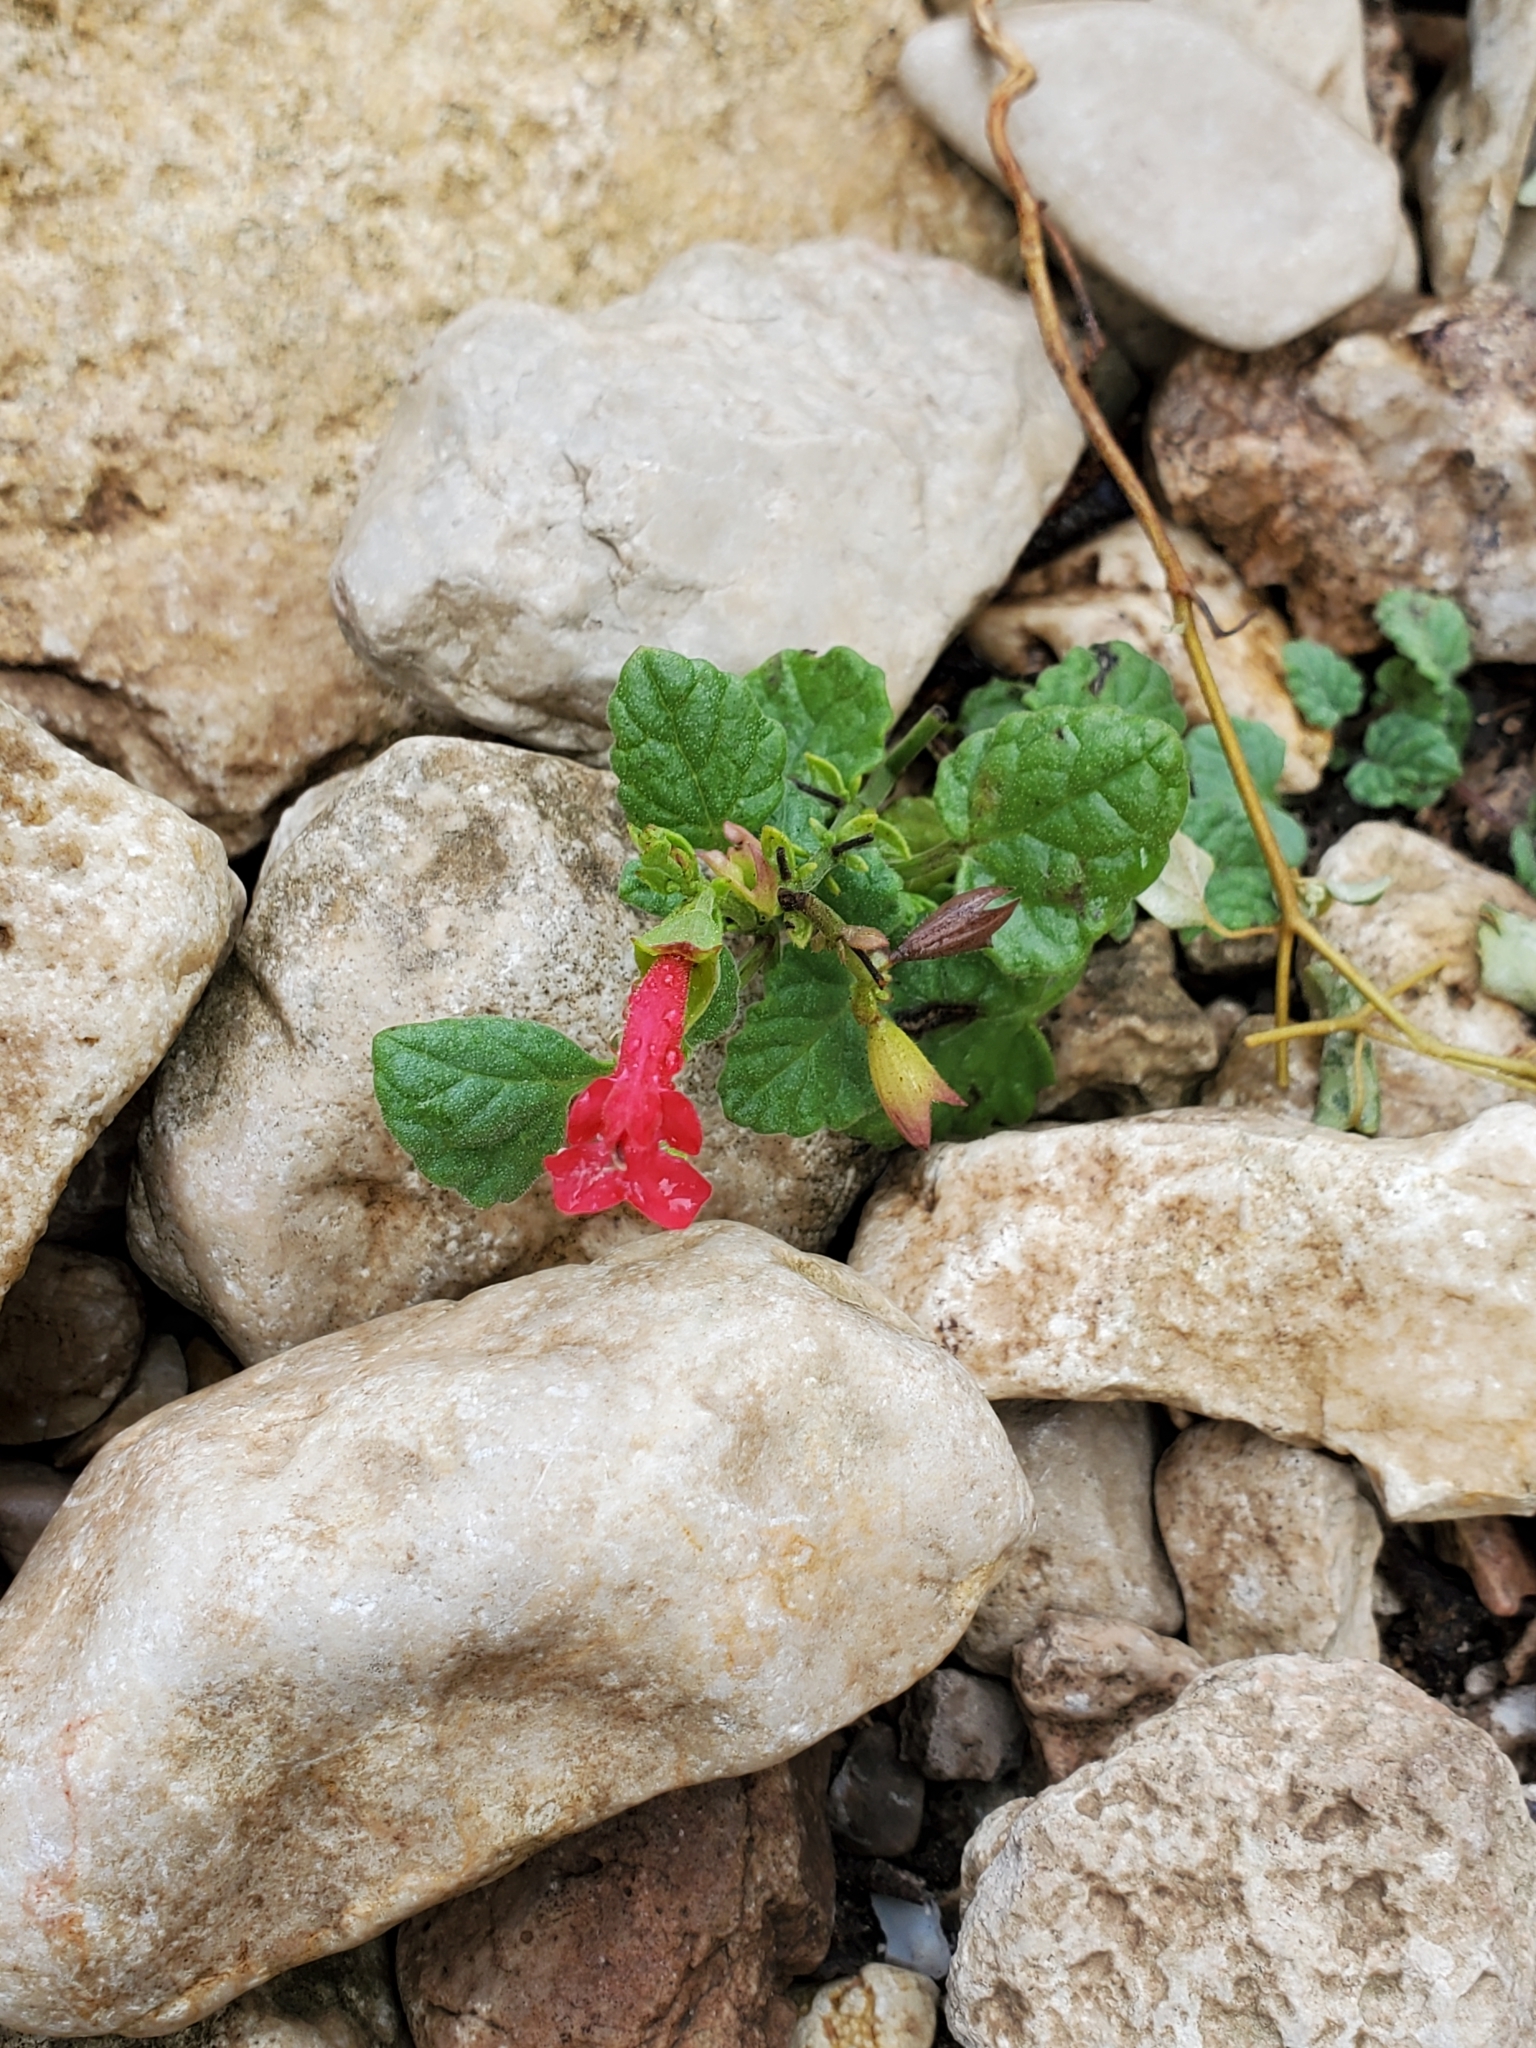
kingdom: Plantae
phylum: Tracheophyta
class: Magnoliopsida
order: Lamiales
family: Lamiaceae
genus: Salvia
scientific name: Salvia roemeriana
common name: Cedar sage
